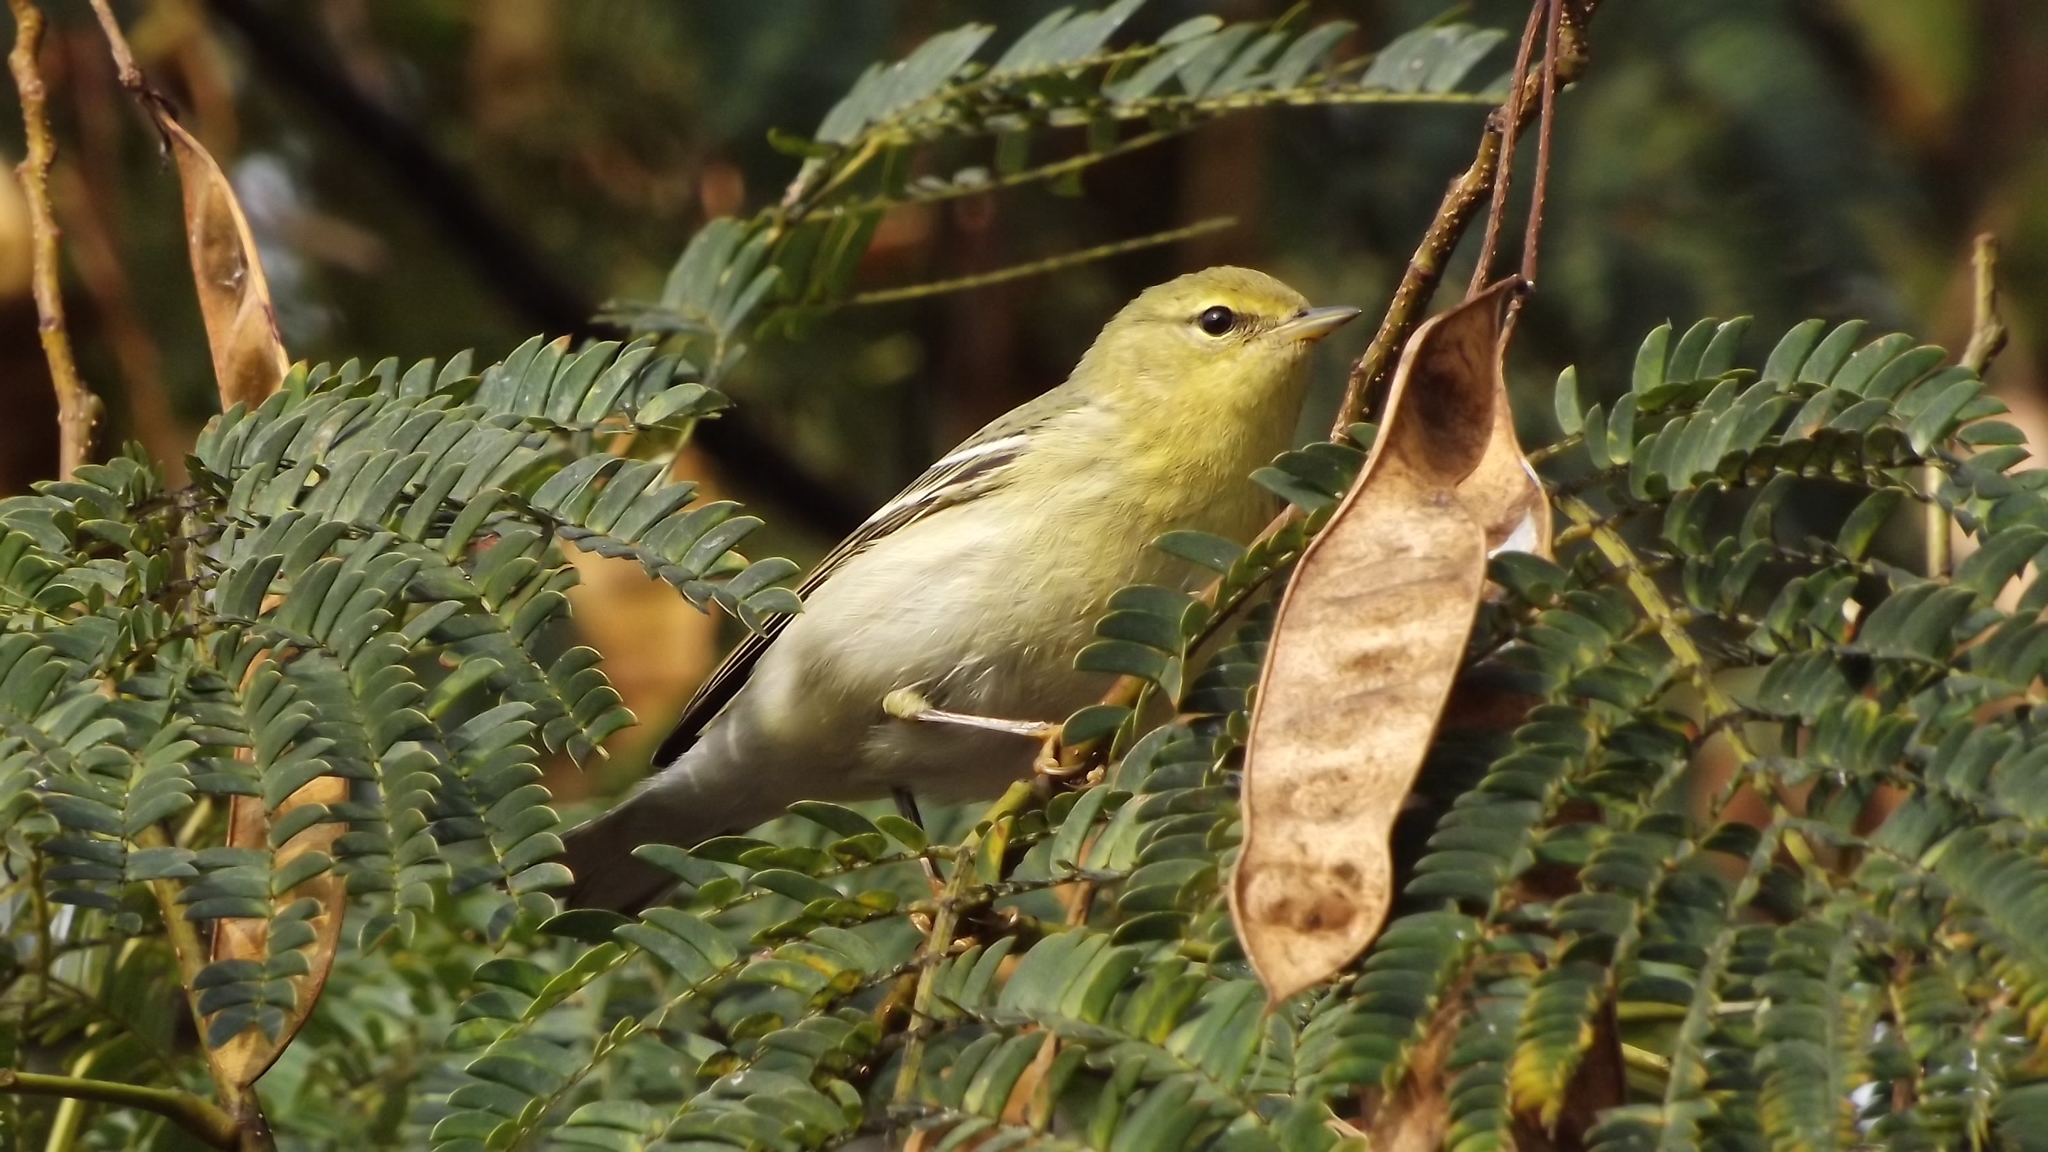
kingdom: Animalia
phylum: Chordata
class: Aves
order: Passeriformes
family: Parulidae
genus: Setophaga
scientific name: Setophaga striata
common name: Blackpoll warbler
